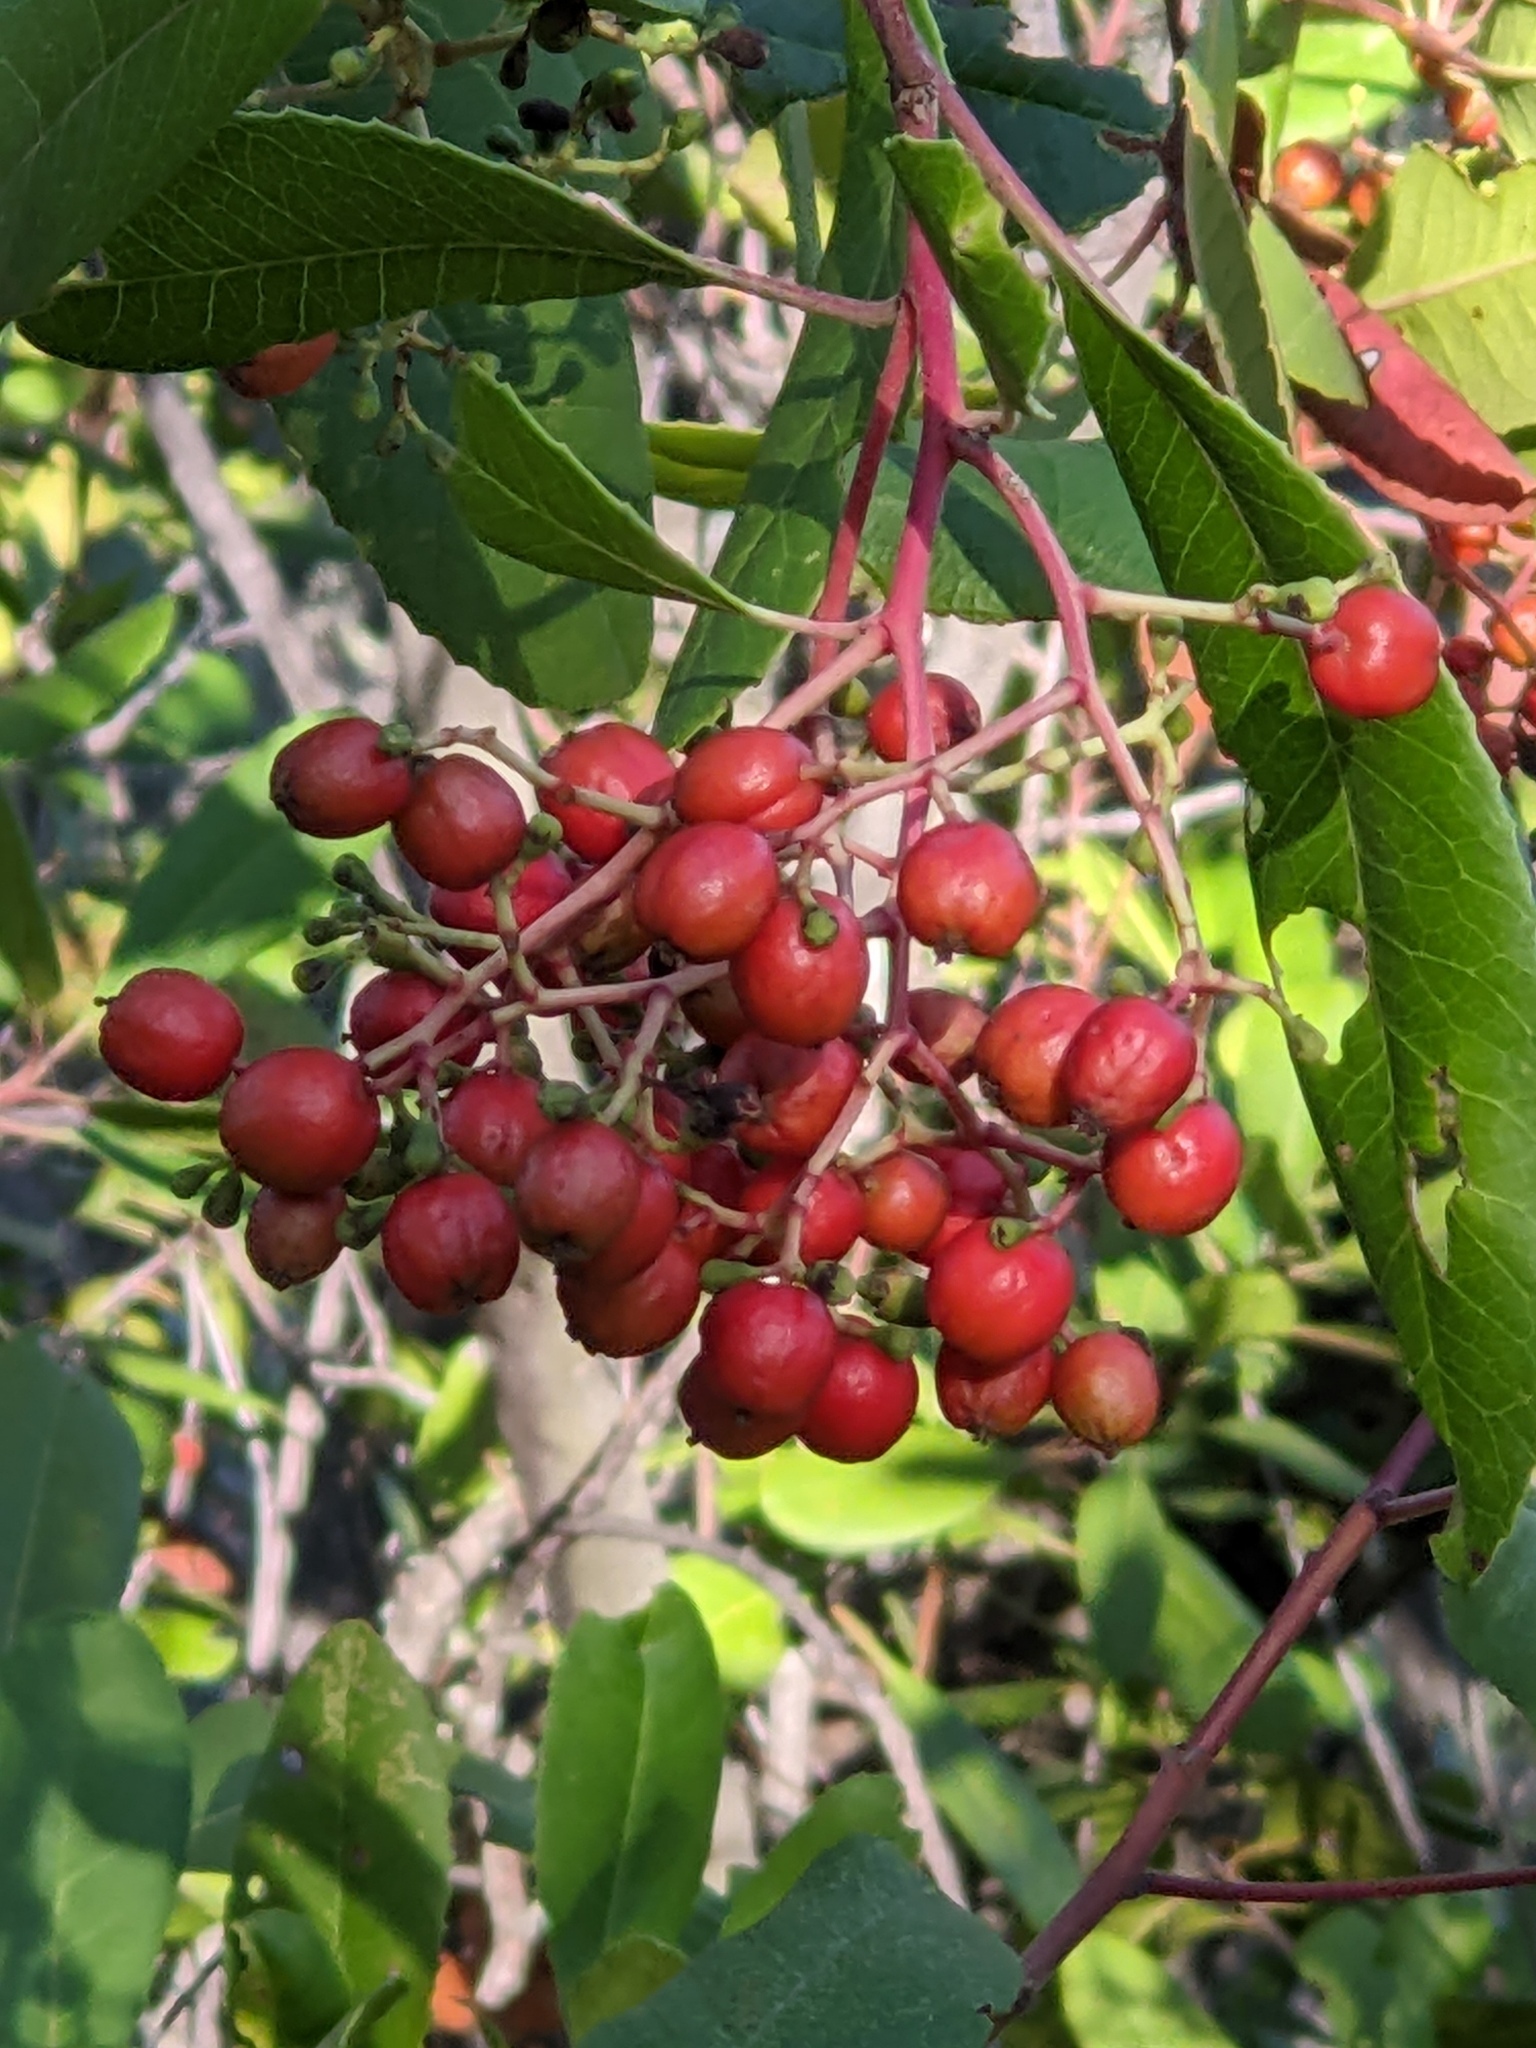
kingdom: Plantae
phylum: Tracheophyta
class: Magnoliopsida
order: Rosales
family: Rosaceae
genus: Heteromeles
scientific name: Heteromeles arbutifolia
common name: California-holly
